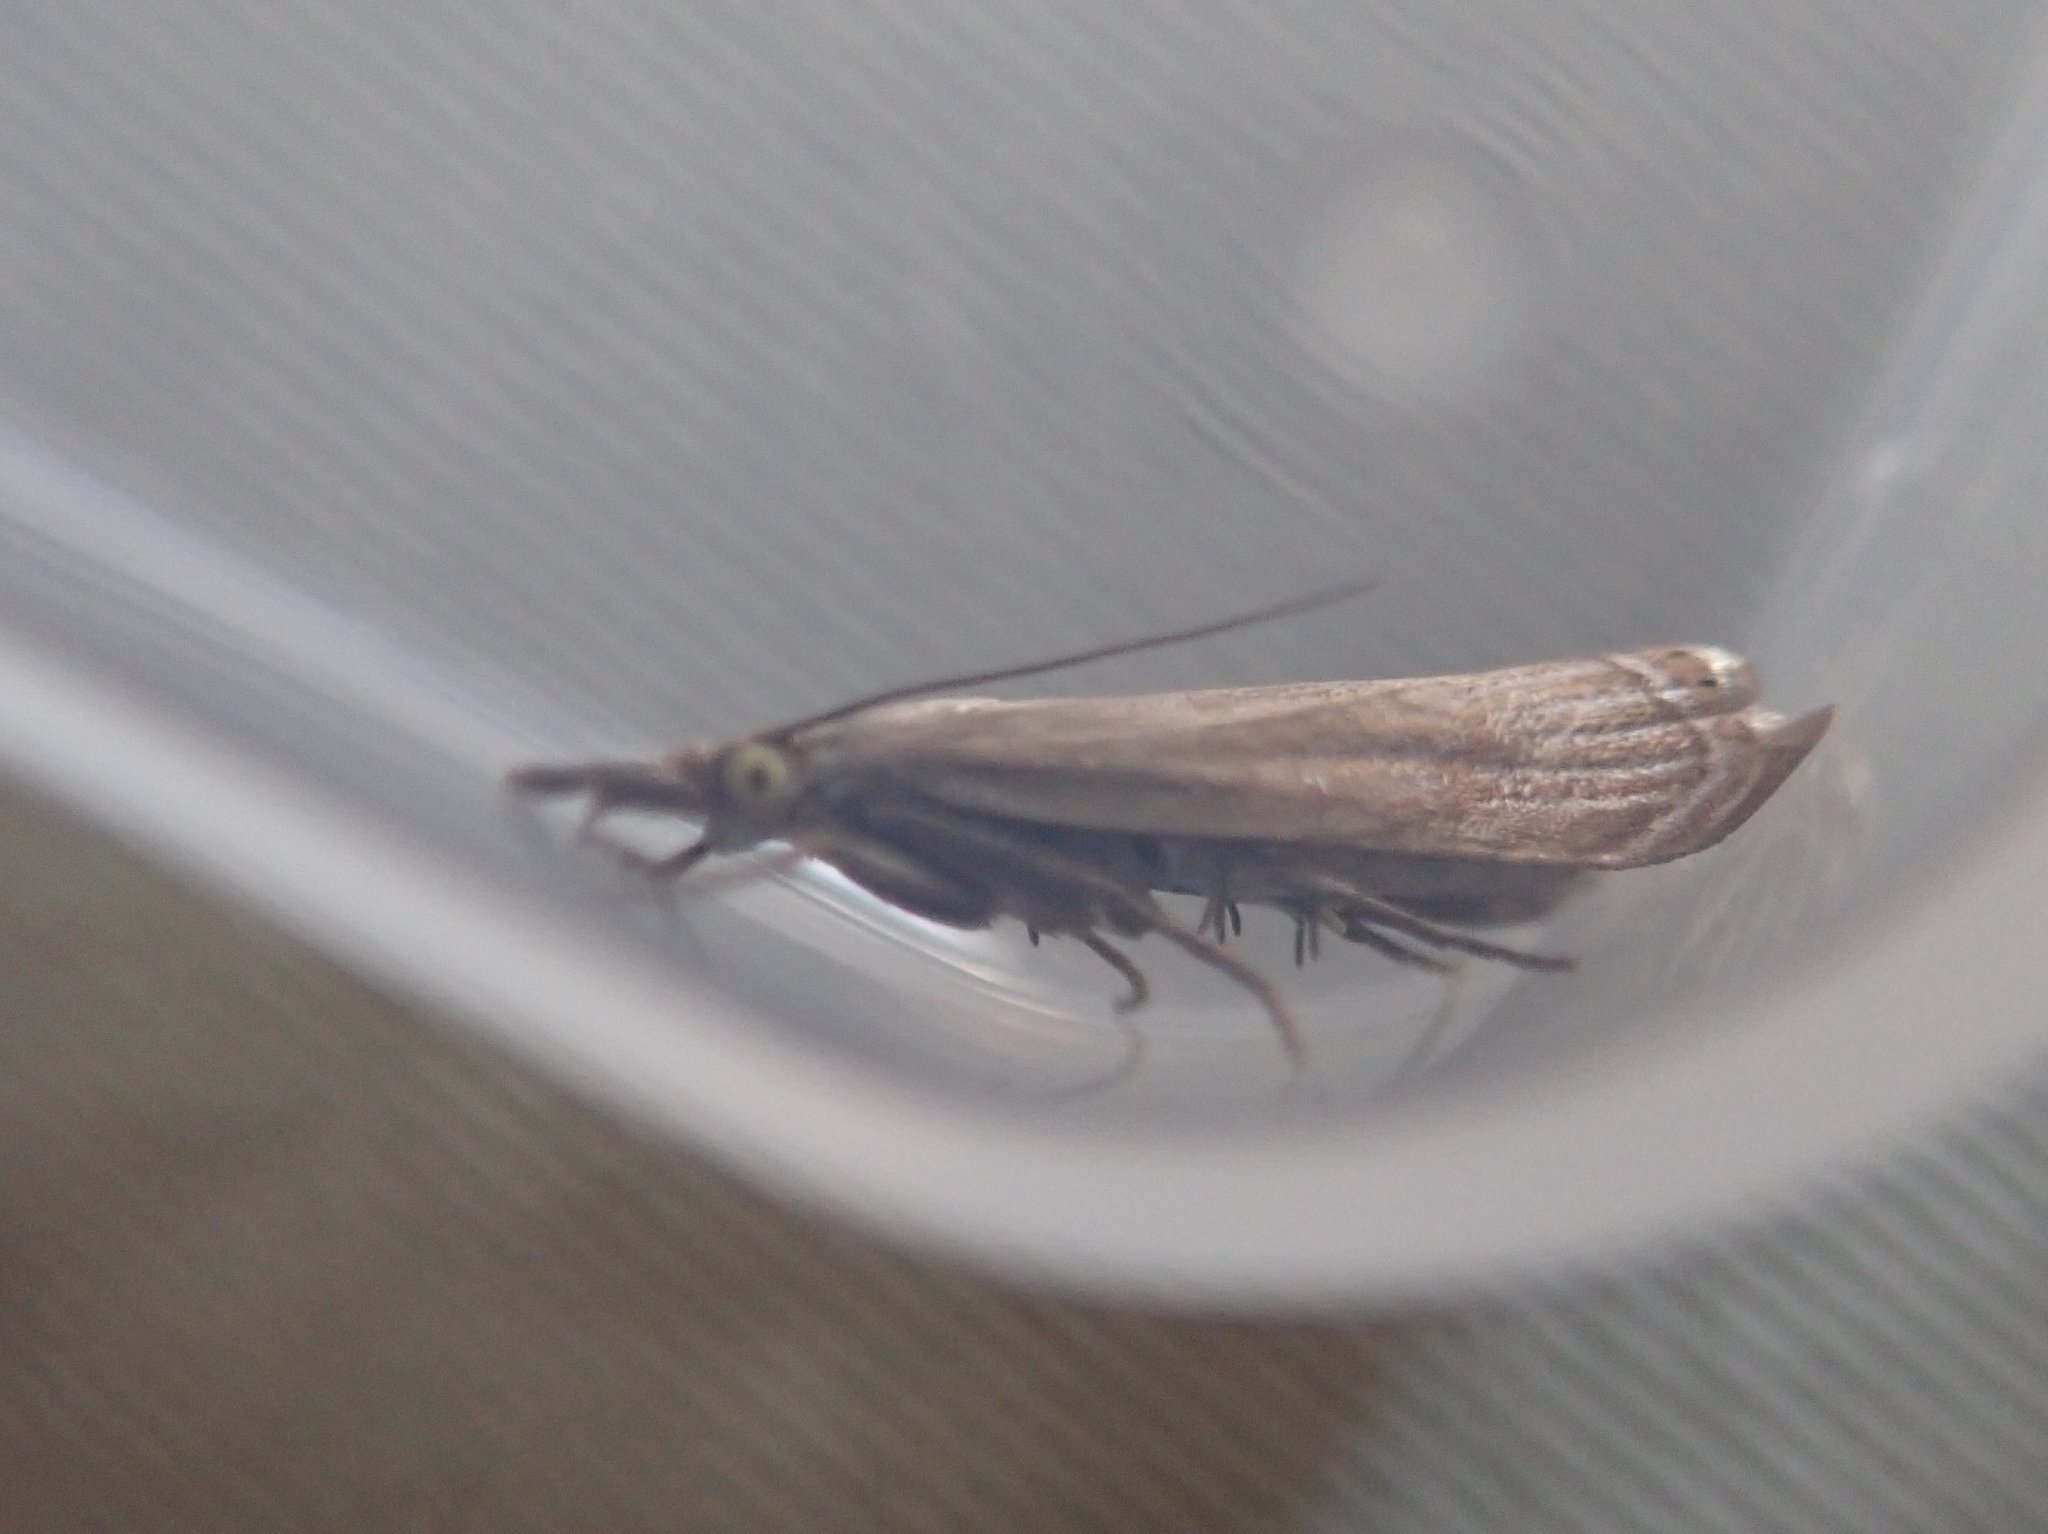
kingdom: Animalia
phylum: Arthropoda
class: Insecta
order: Lepidoptera
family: Crambidae
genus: Chrysoteuchia
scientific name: Chrysoteuchia culmella
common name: Garden grass-veneer
